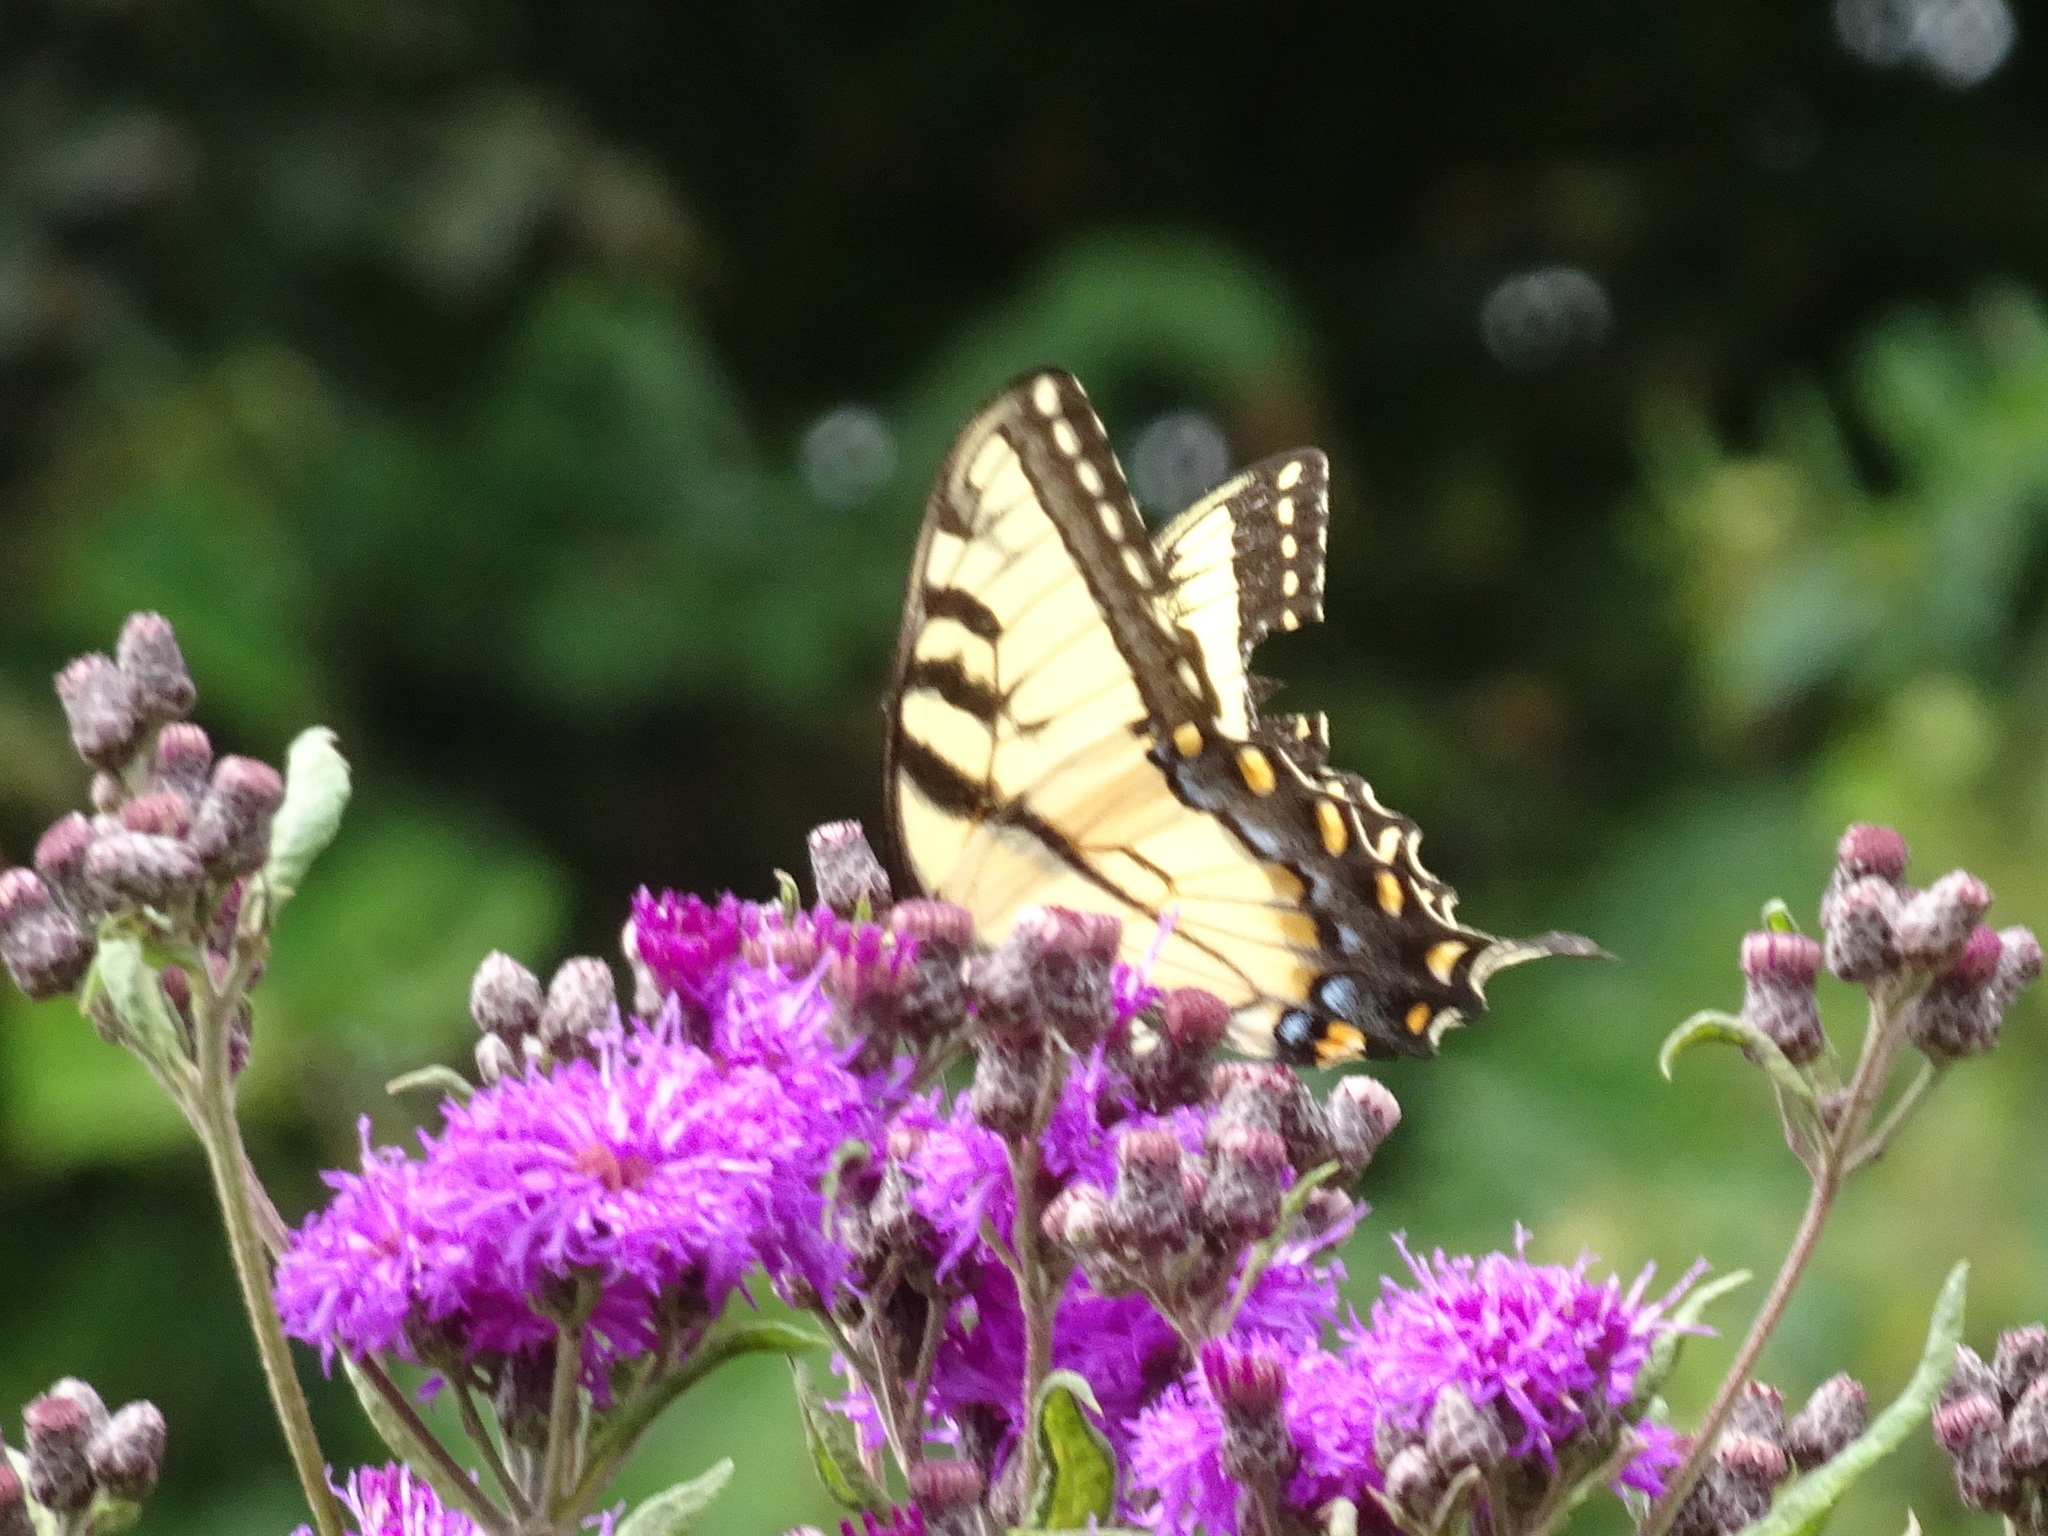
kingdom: Animalia
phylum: Arthropoda
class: Insecta
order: Lepidoptera
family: Papilionidae
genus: Papilio
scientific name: Papilio glaucus
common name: Tiger swallowtail
